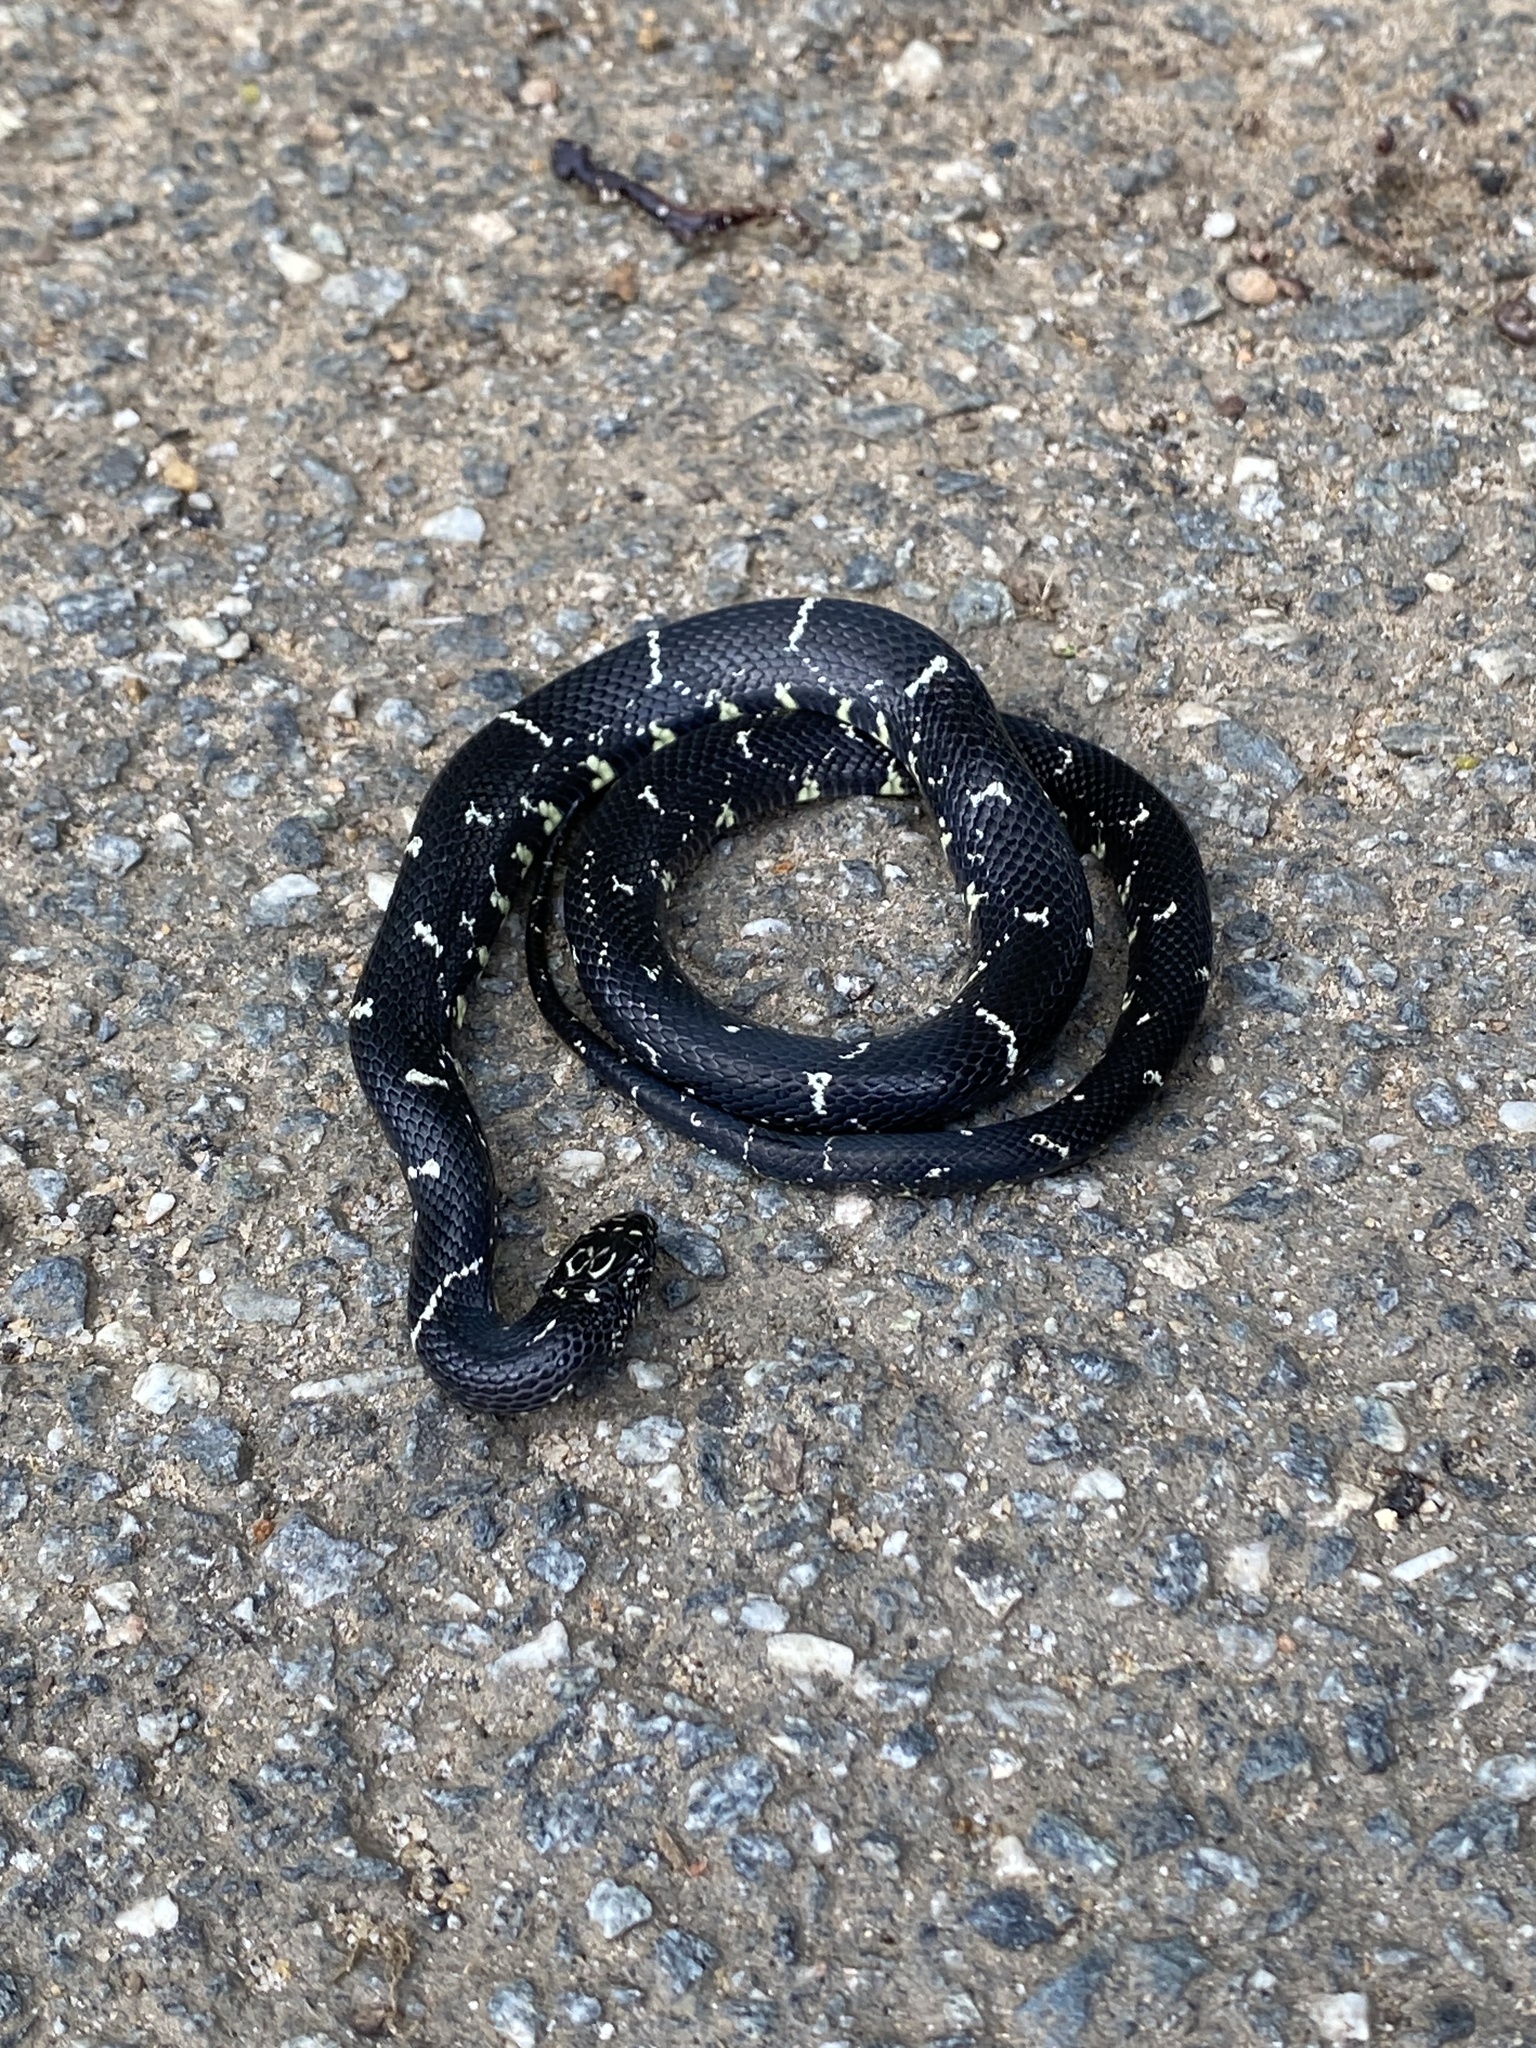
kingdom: Animalia
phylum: Chordata
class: Squamata
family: Colubridae
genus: Lampropeltis
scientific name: Lampropeltis getula
